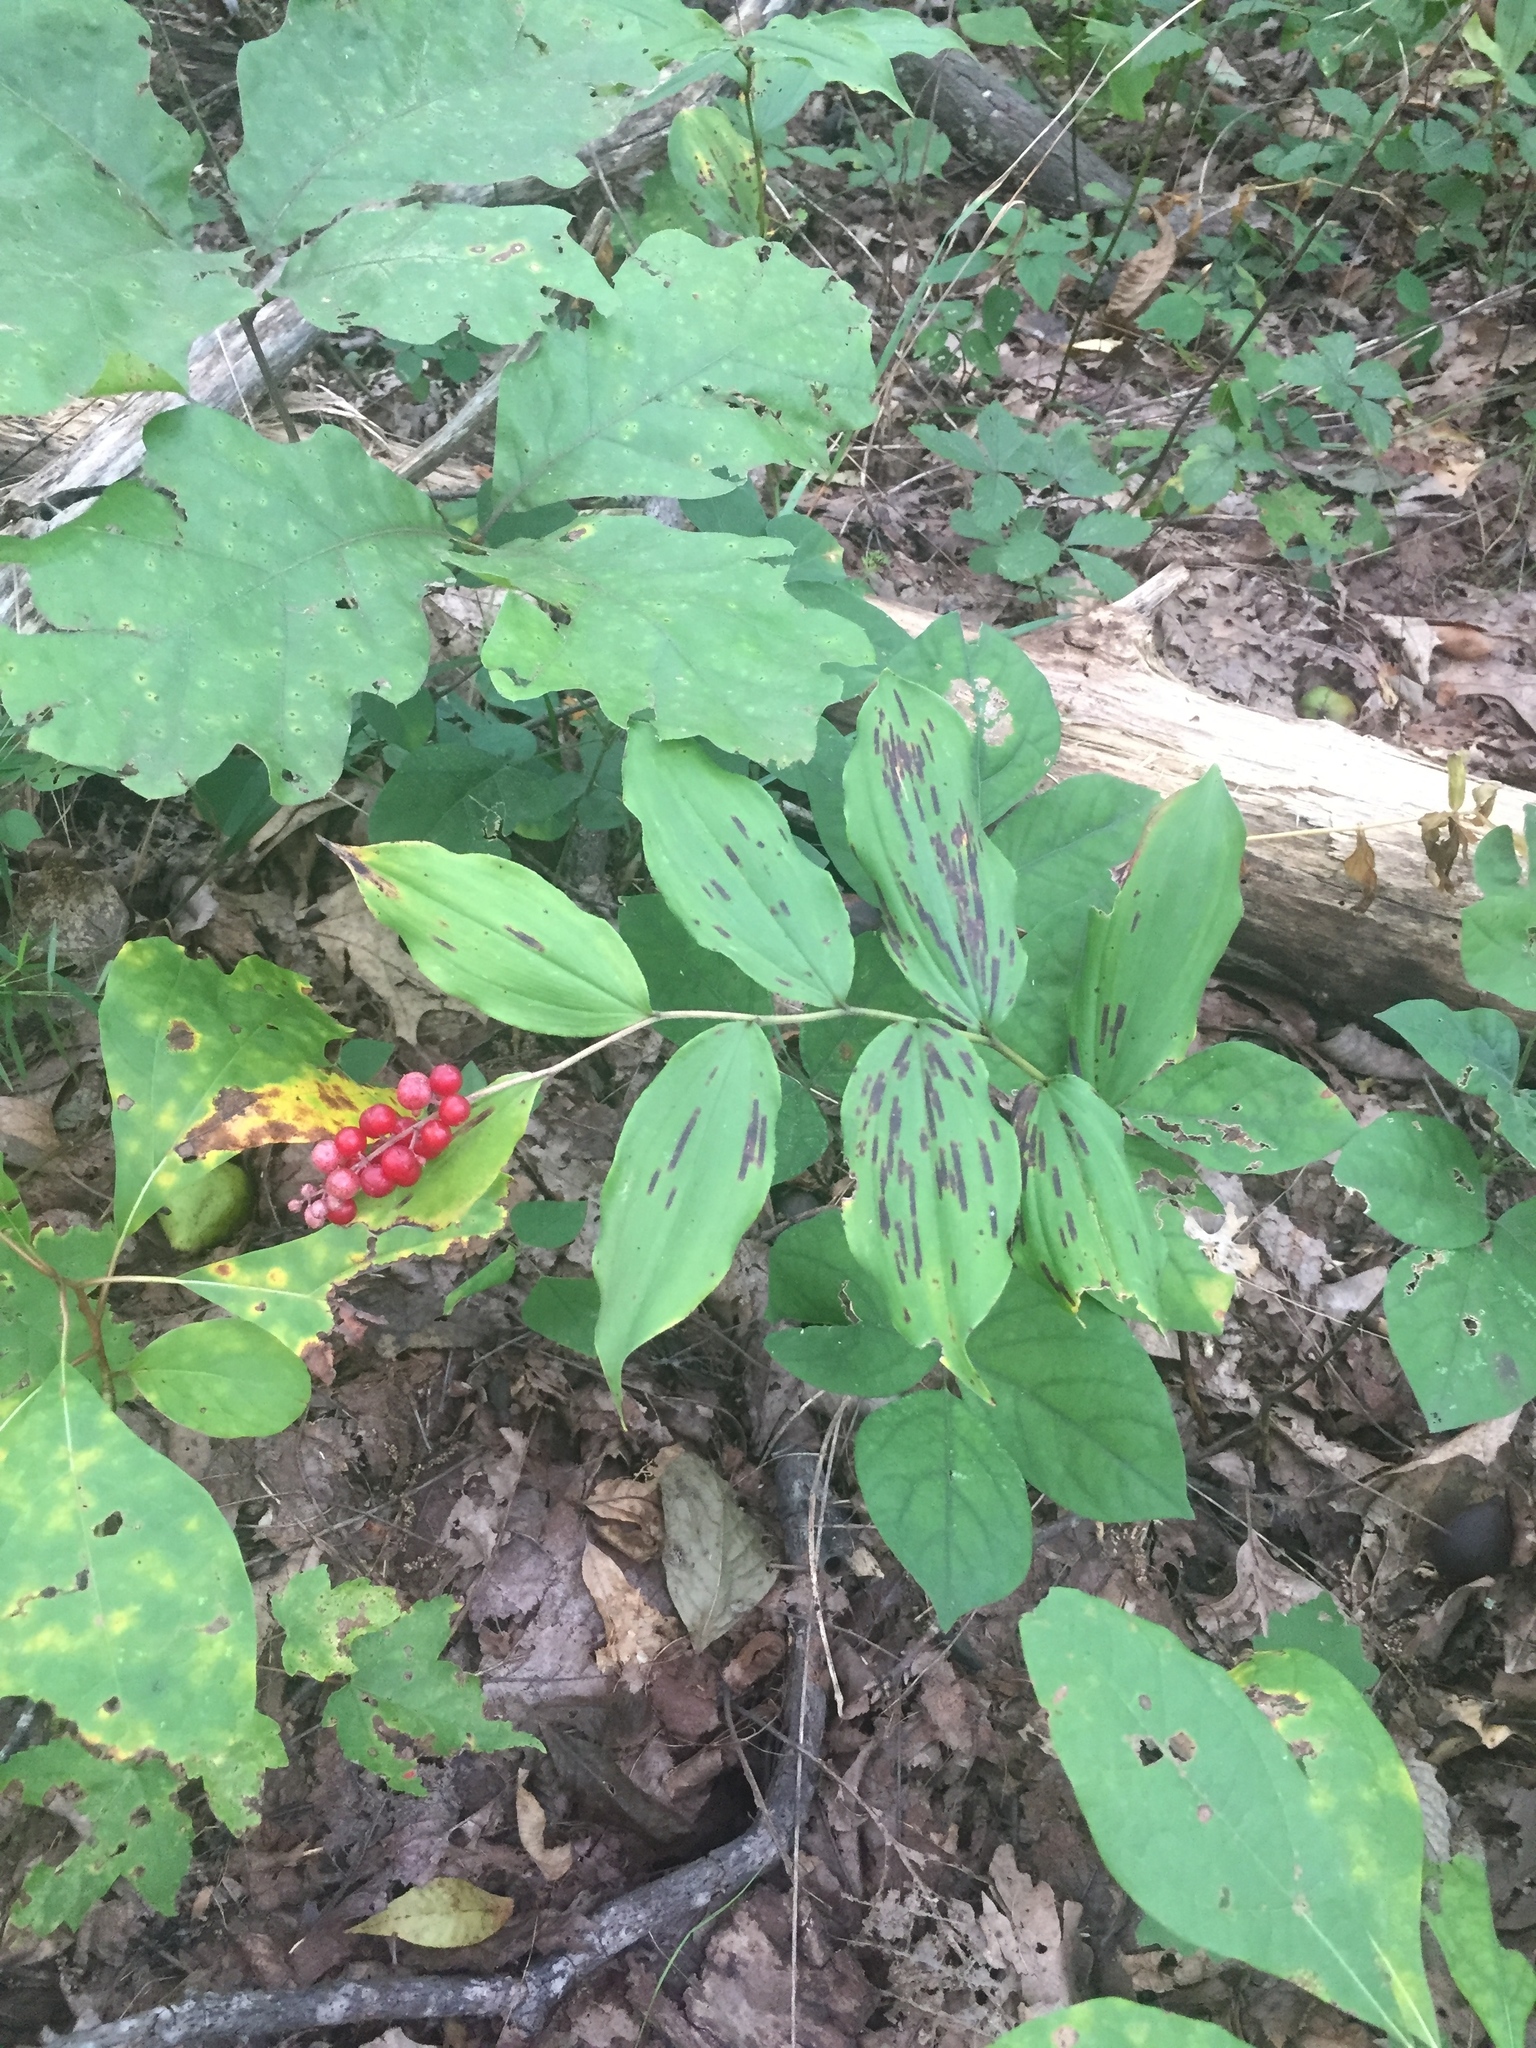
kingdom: Plantae
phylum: Tracheophyta
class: Liliopsida
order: Asparagales
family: Asparagaceae
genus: Maianthemum
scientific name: Maianthemum racemosum
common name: False spikenard
